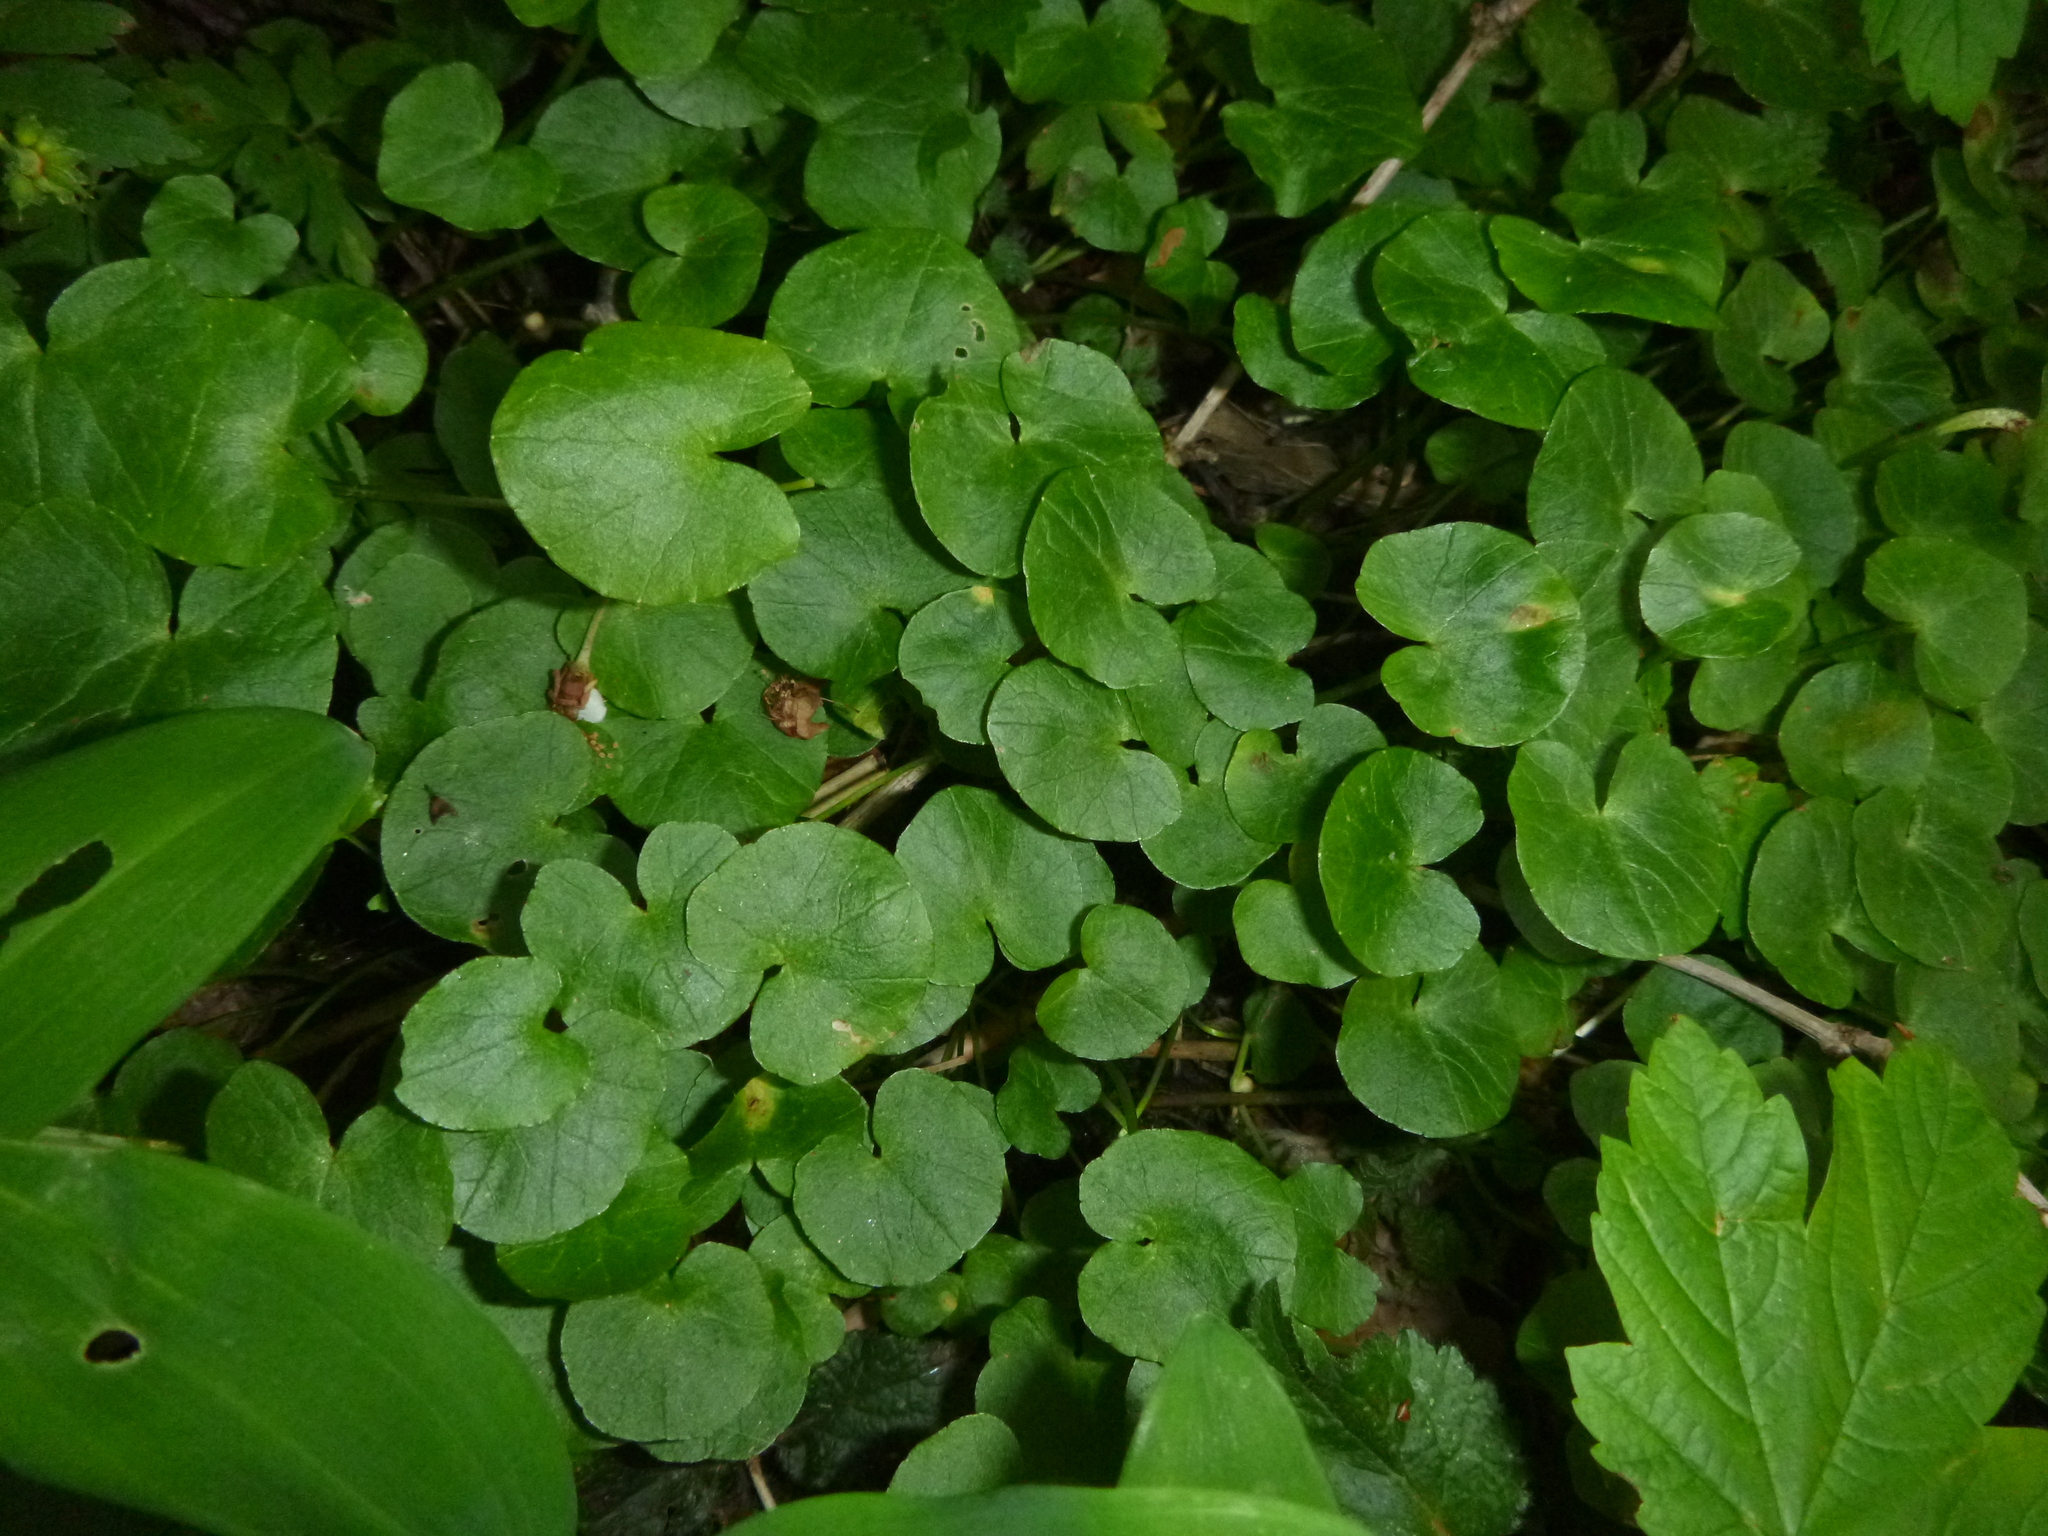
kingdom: Plantae
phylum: Tracheophyta
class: Magnoliopsida
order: Ranunculales
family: Ranunculaceae
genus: Ficaria
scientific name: Ficaria verna
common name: Lesser celandine
